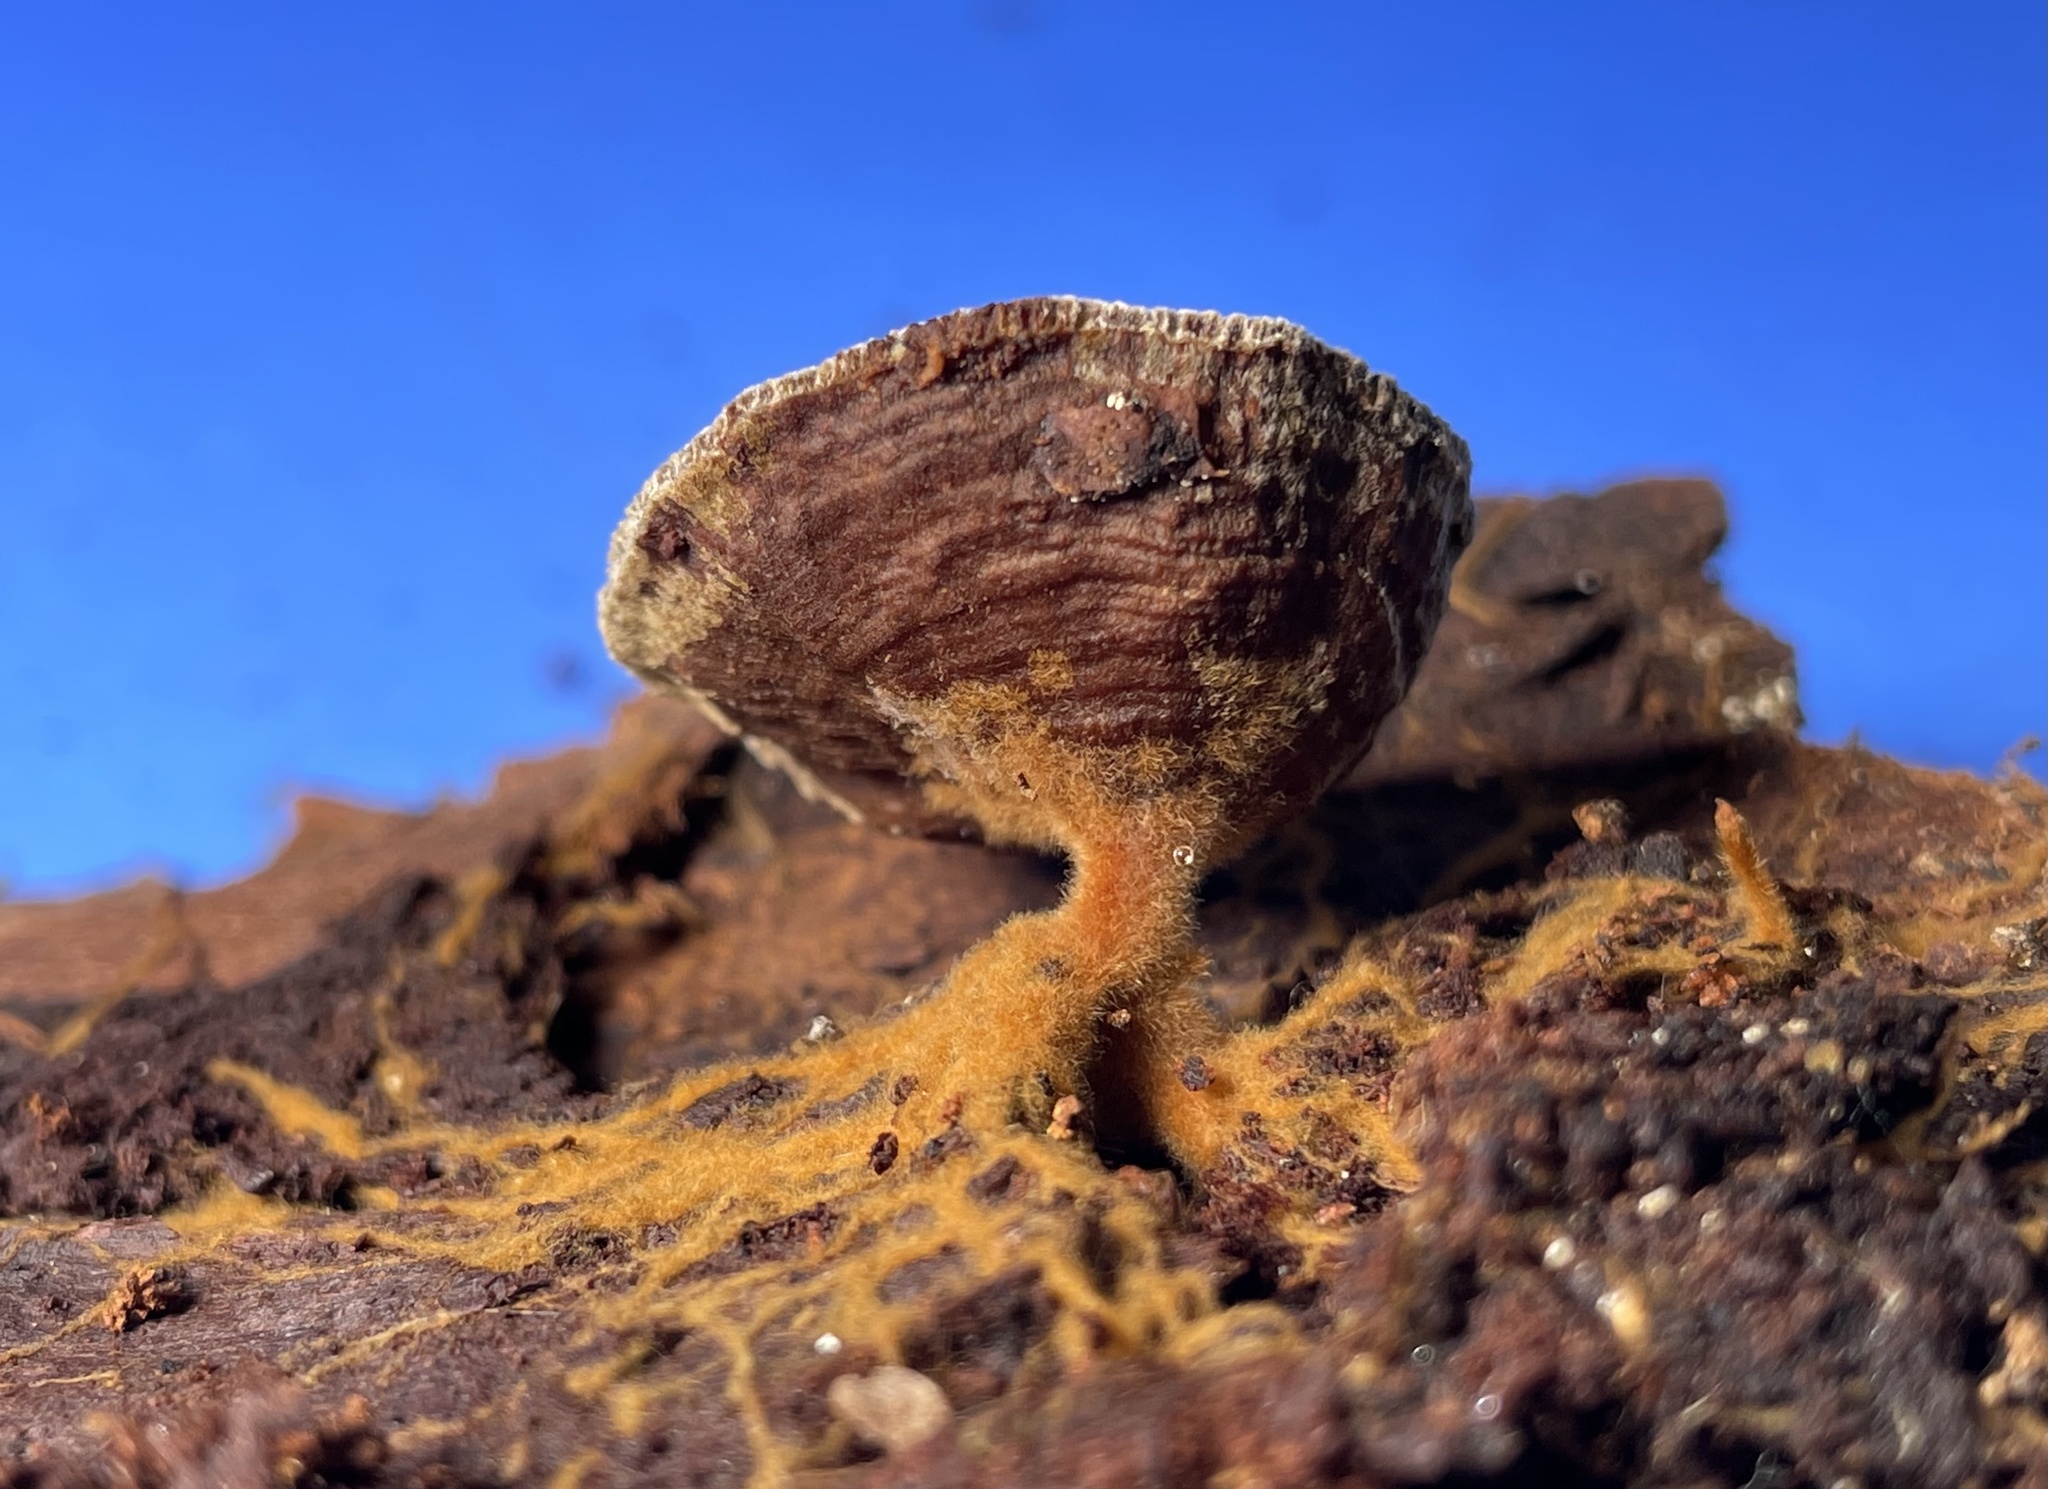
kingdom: Fungi
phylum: Basidiomycota
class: Agaricomycetes
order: Hymenochaetales
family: Hymenochaetaceae
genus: Coltriciella
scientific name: Coltriciella dependens
